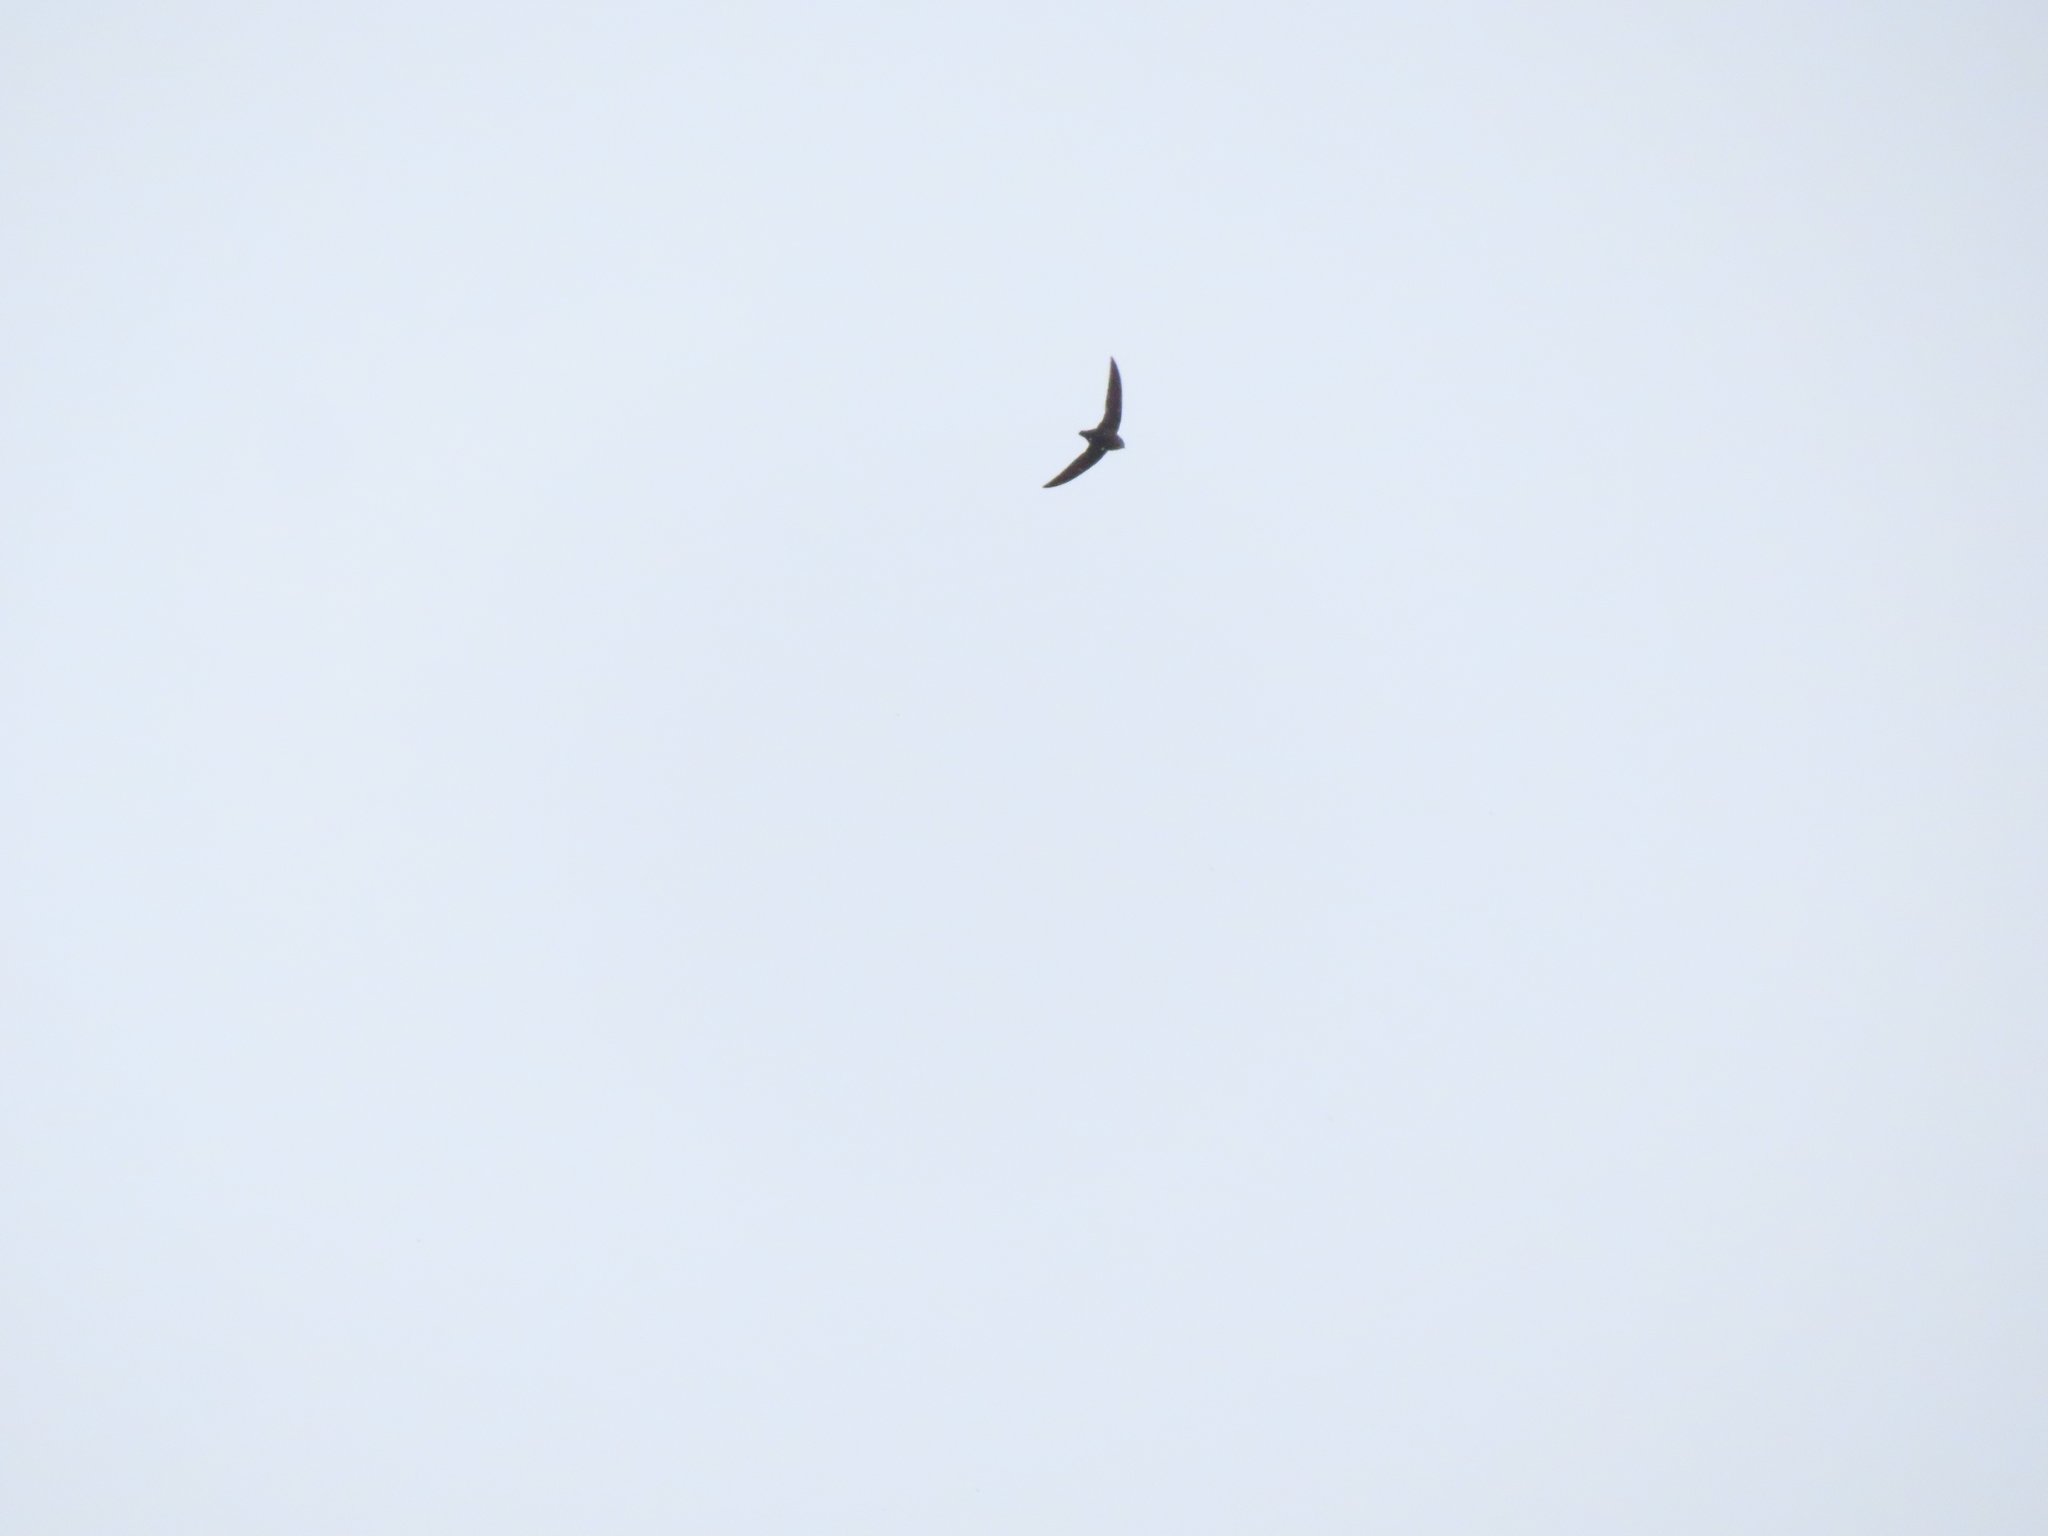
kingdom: Animalia
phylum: Chordata
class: Aves
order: Apodiformes
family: Apodidae
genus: Chaetura
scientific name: Chaetura pelagica
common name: Chimney swift
